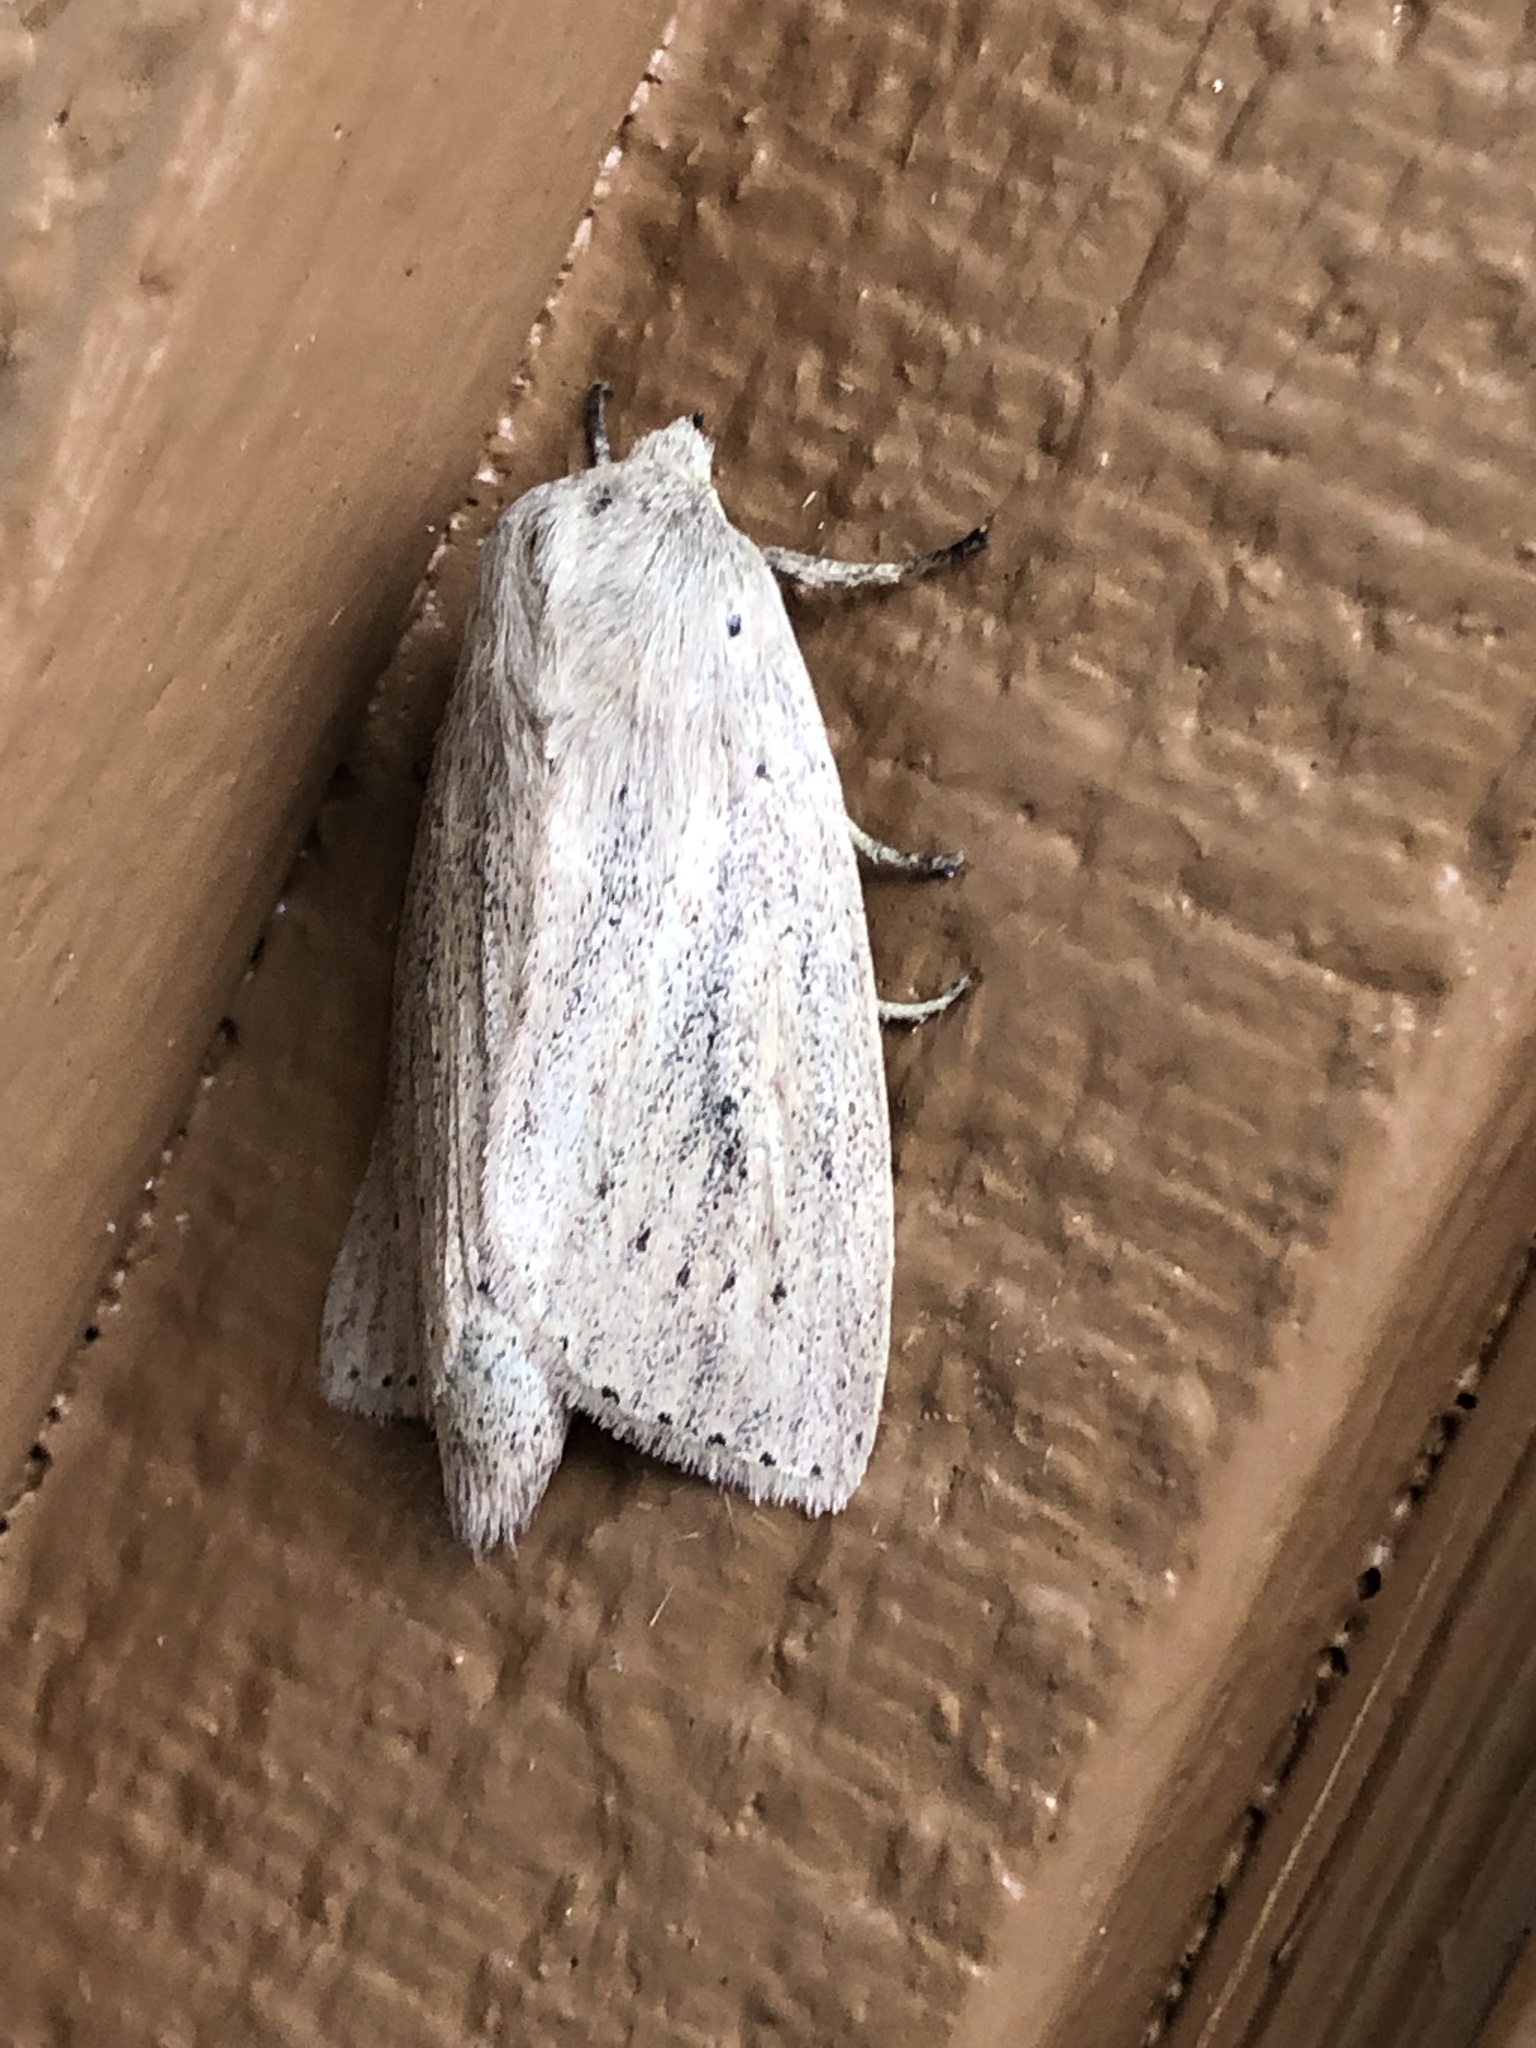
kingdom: Animalia
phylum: Arthropoda
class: Insecta
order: Lepidoptera
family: Noctuidae
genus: Globia
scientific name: Globia oblonga
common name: Oblong sedge borer moth
